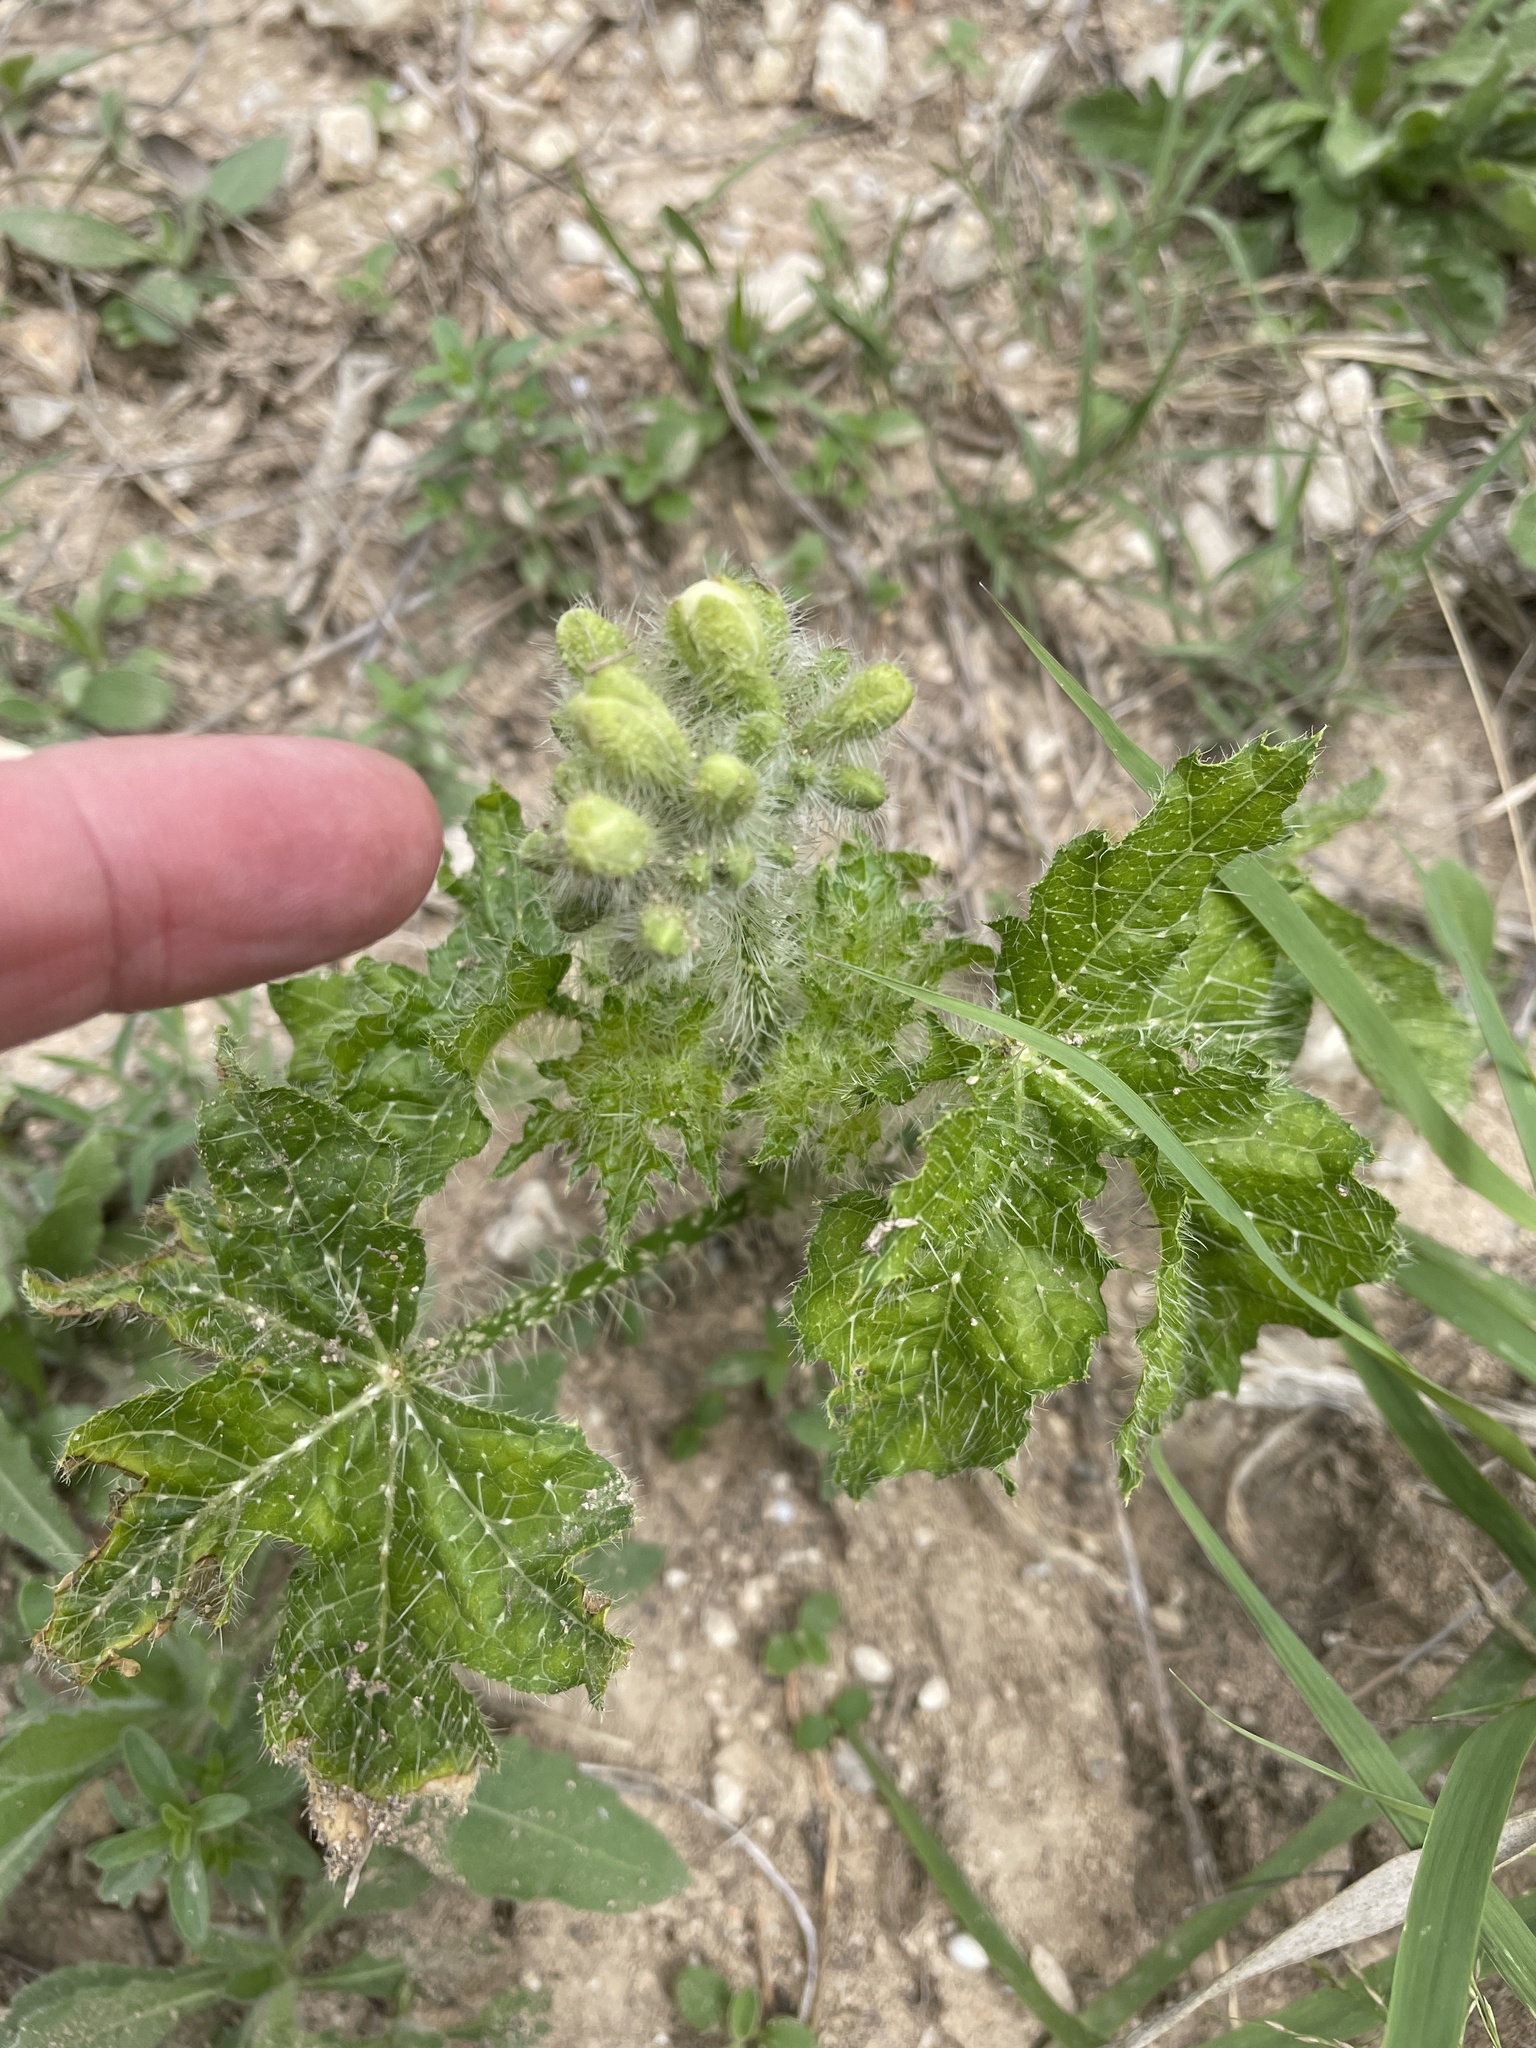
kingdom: Plantae
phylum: Tracheophyta
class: Magnoliopsida
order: Malpighiales
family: Euphorbiaceae
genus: Cnidoscolus
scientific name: Cnidoscolus texanus
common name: Texas bull-nettle
